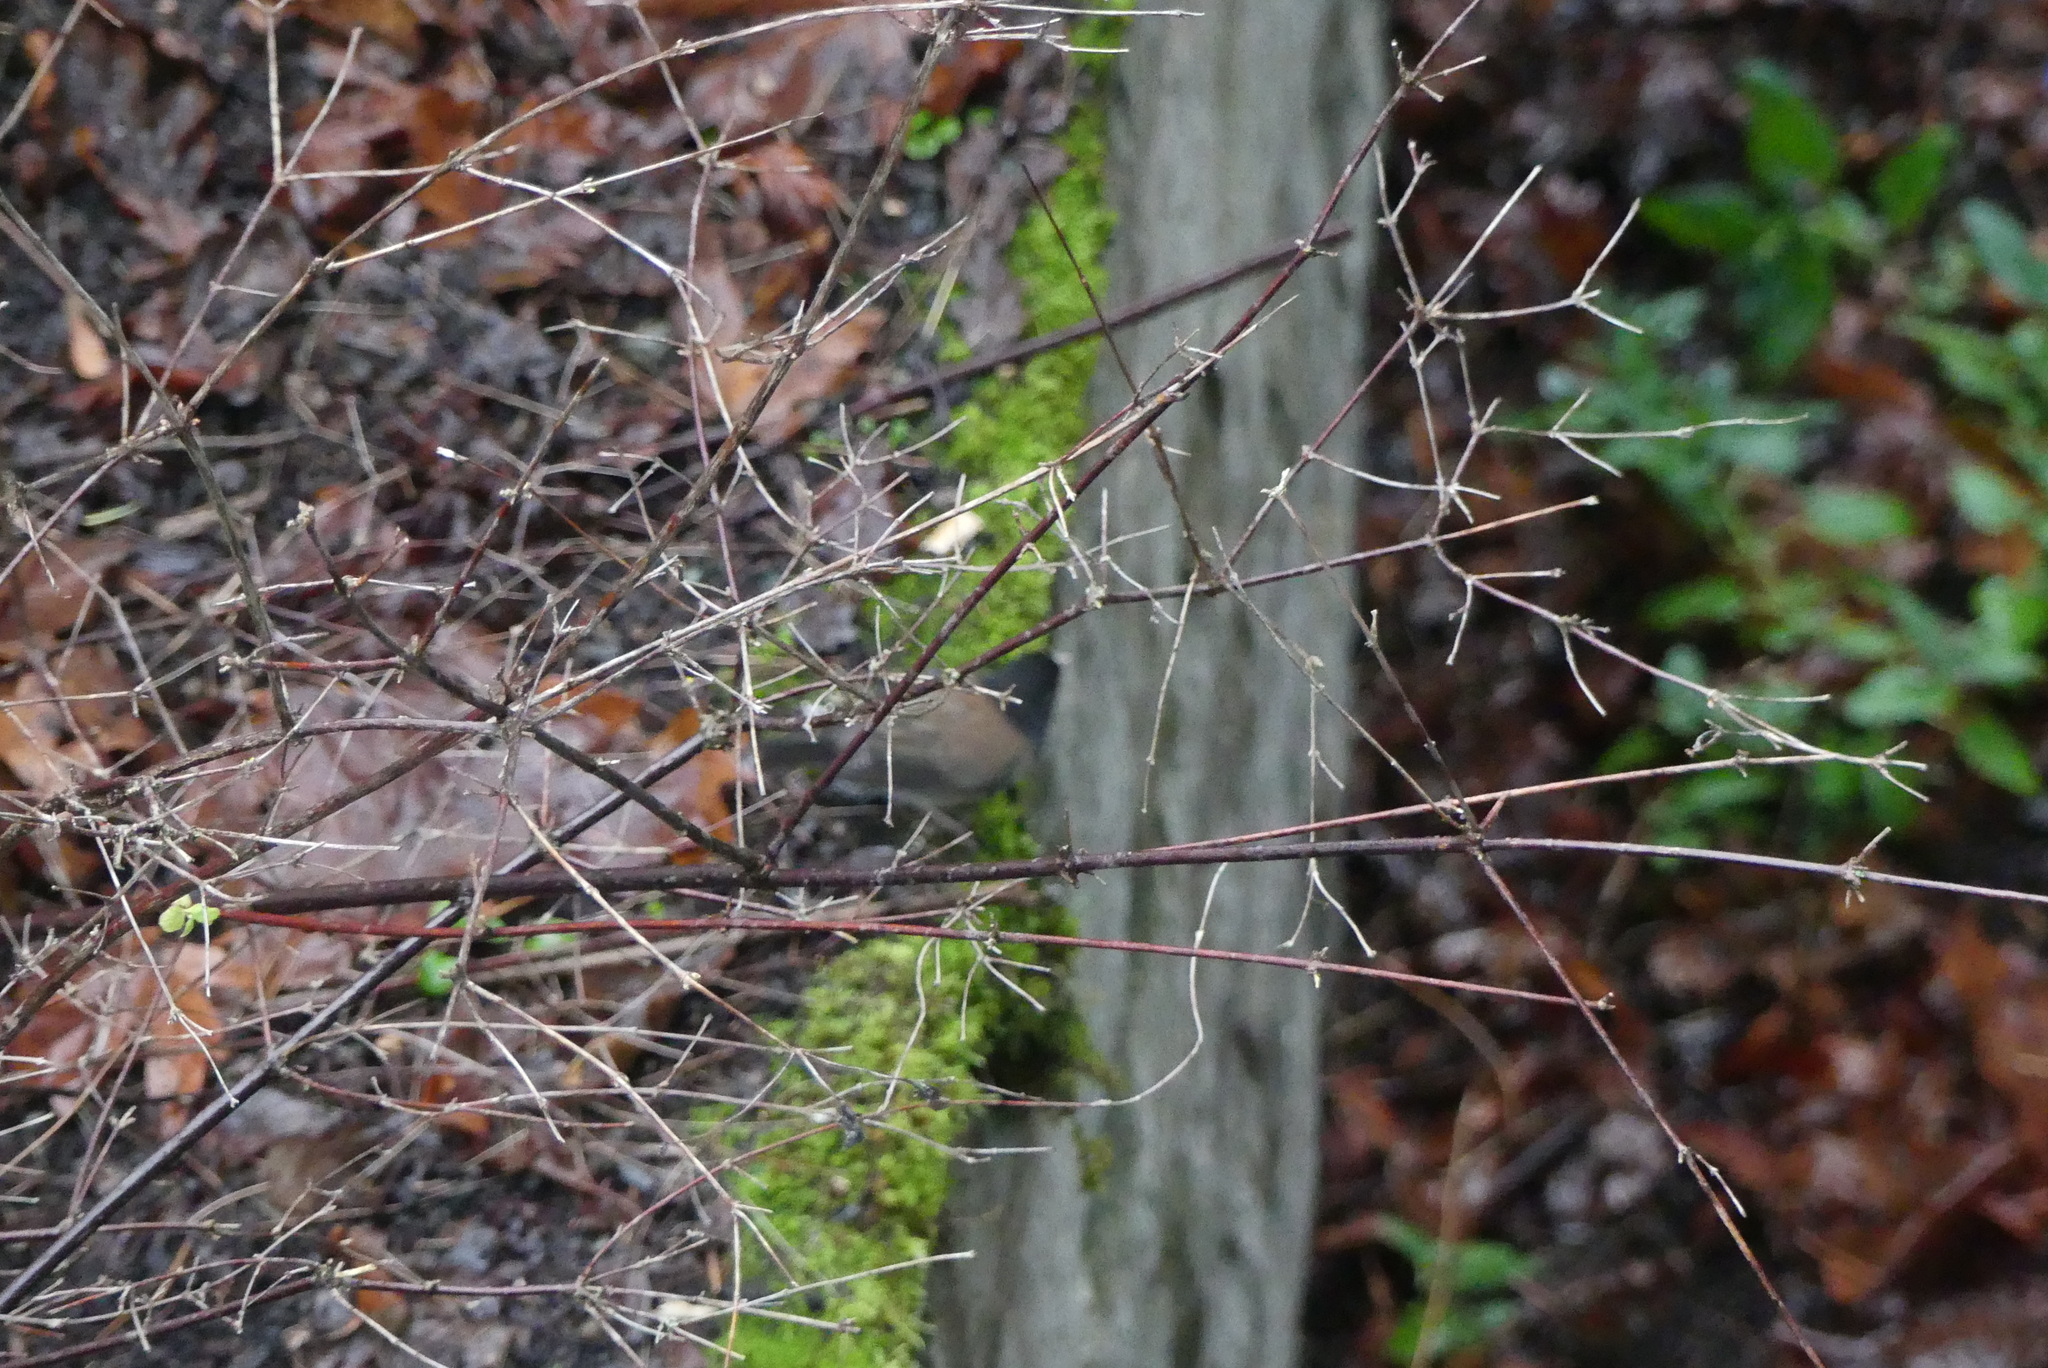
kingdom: Animalia
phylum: Chordata
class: Aves
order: Passeriformes
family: Passerellidae
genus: Junco
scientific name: Junco hyemalis
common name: Dark-eyed junco
